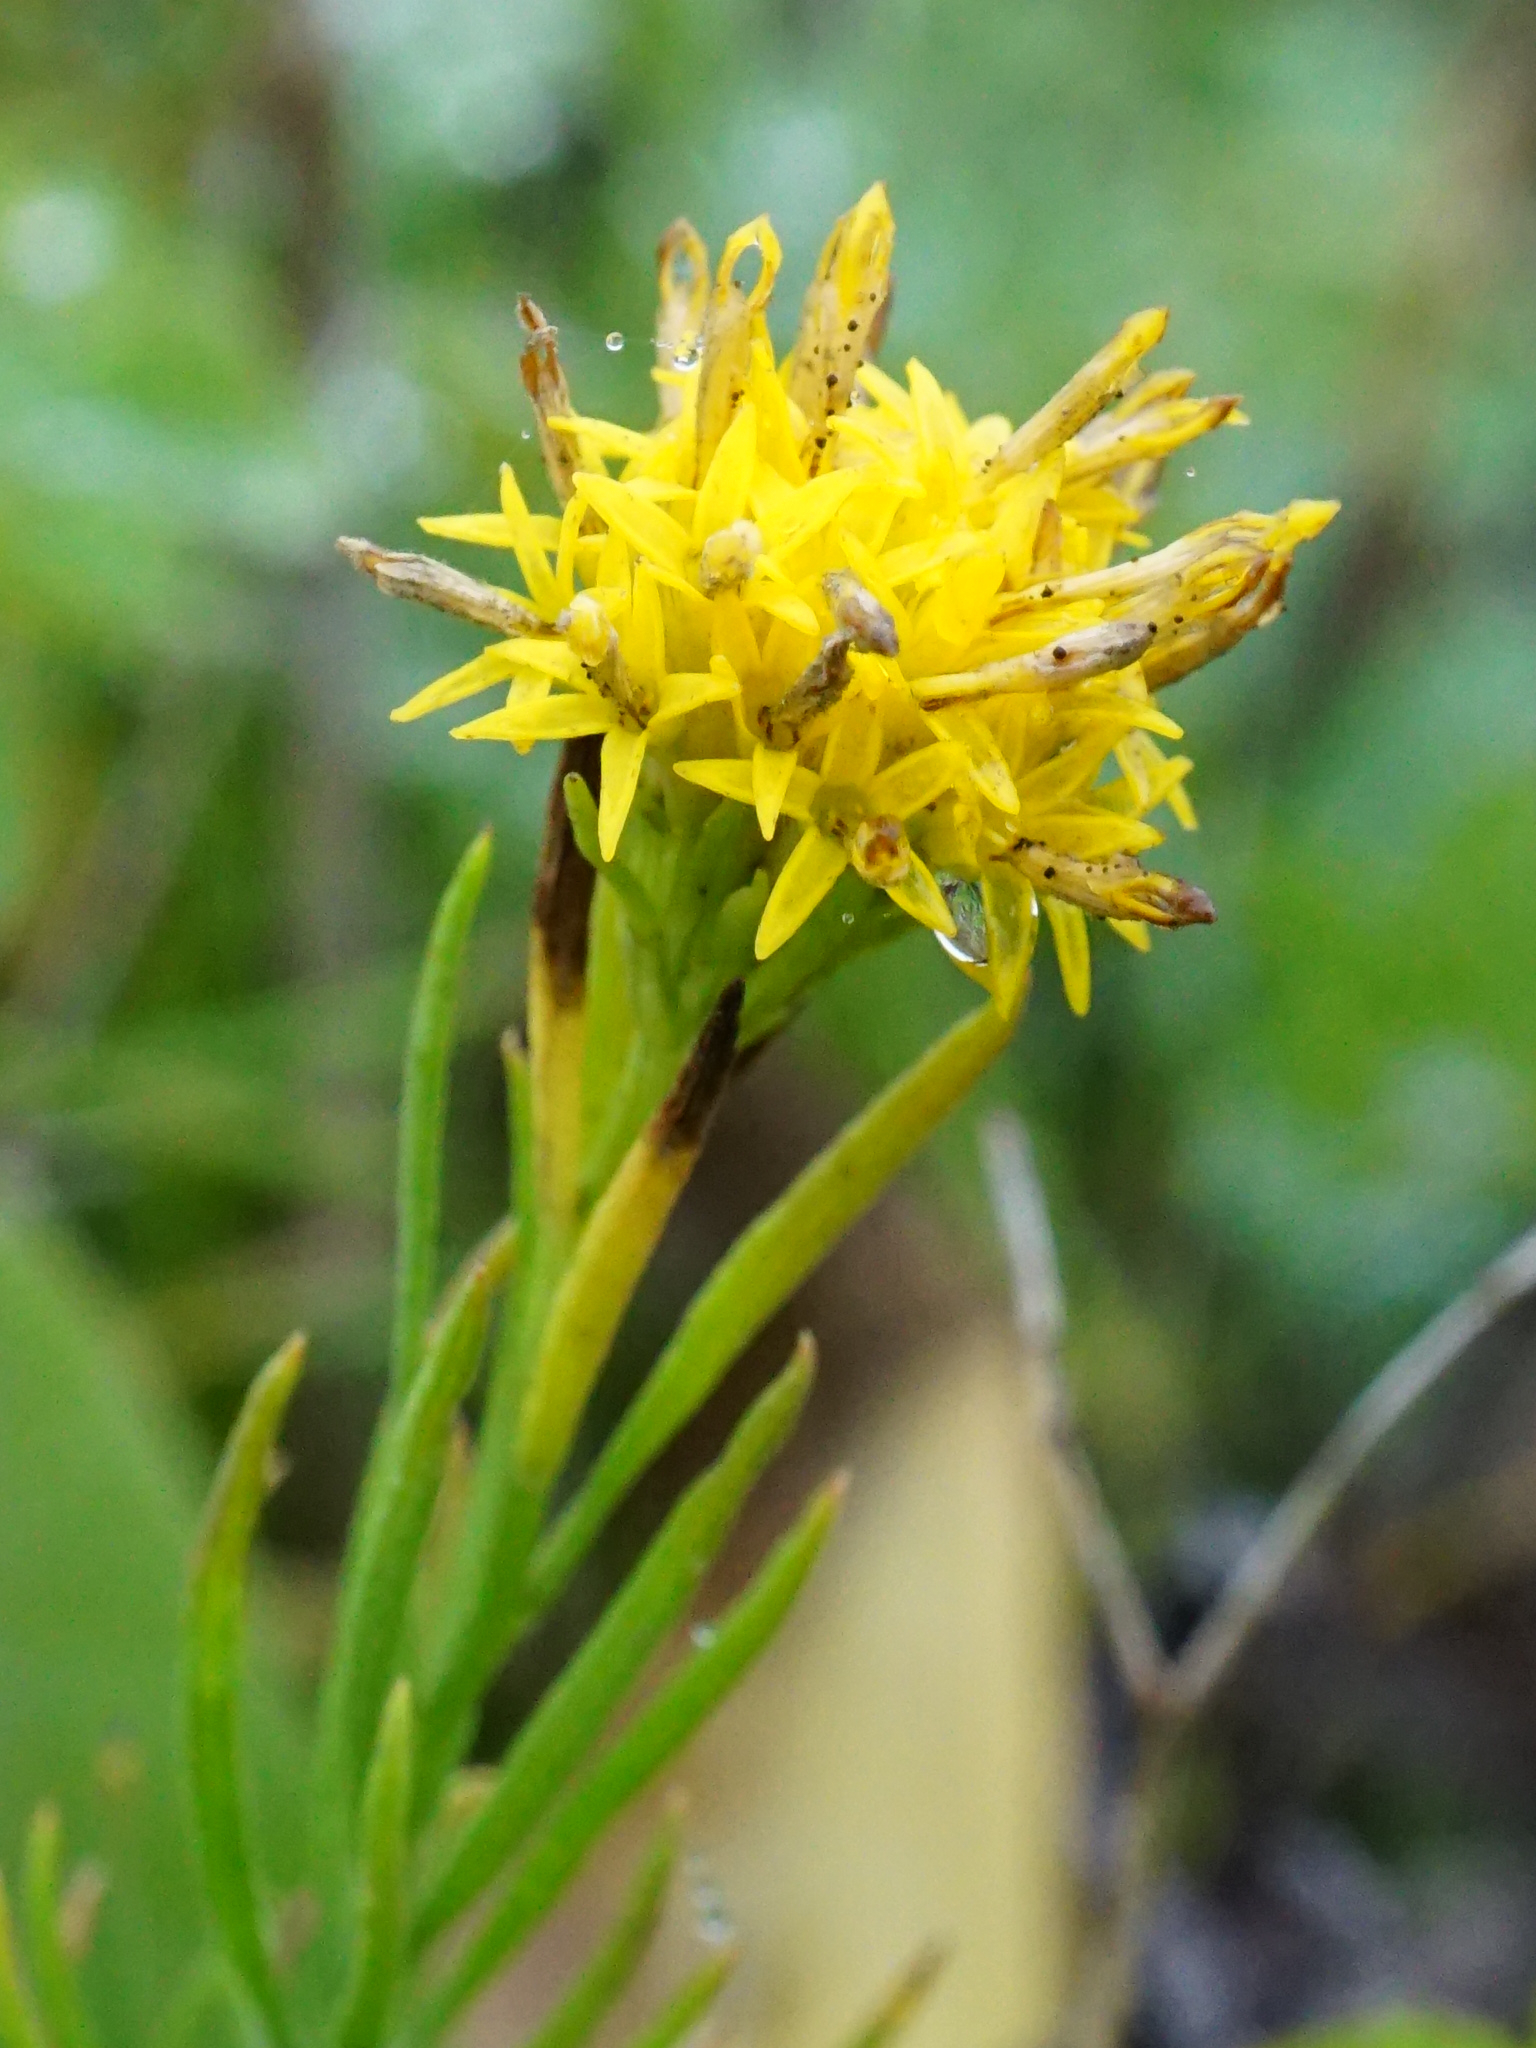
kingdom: Plantae
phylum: Tracheophyta
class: Magnoliopsida
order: Asterales
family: Asteraceae
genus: Galatella
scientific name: Galatella linosyris
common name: Goldilocks aster
